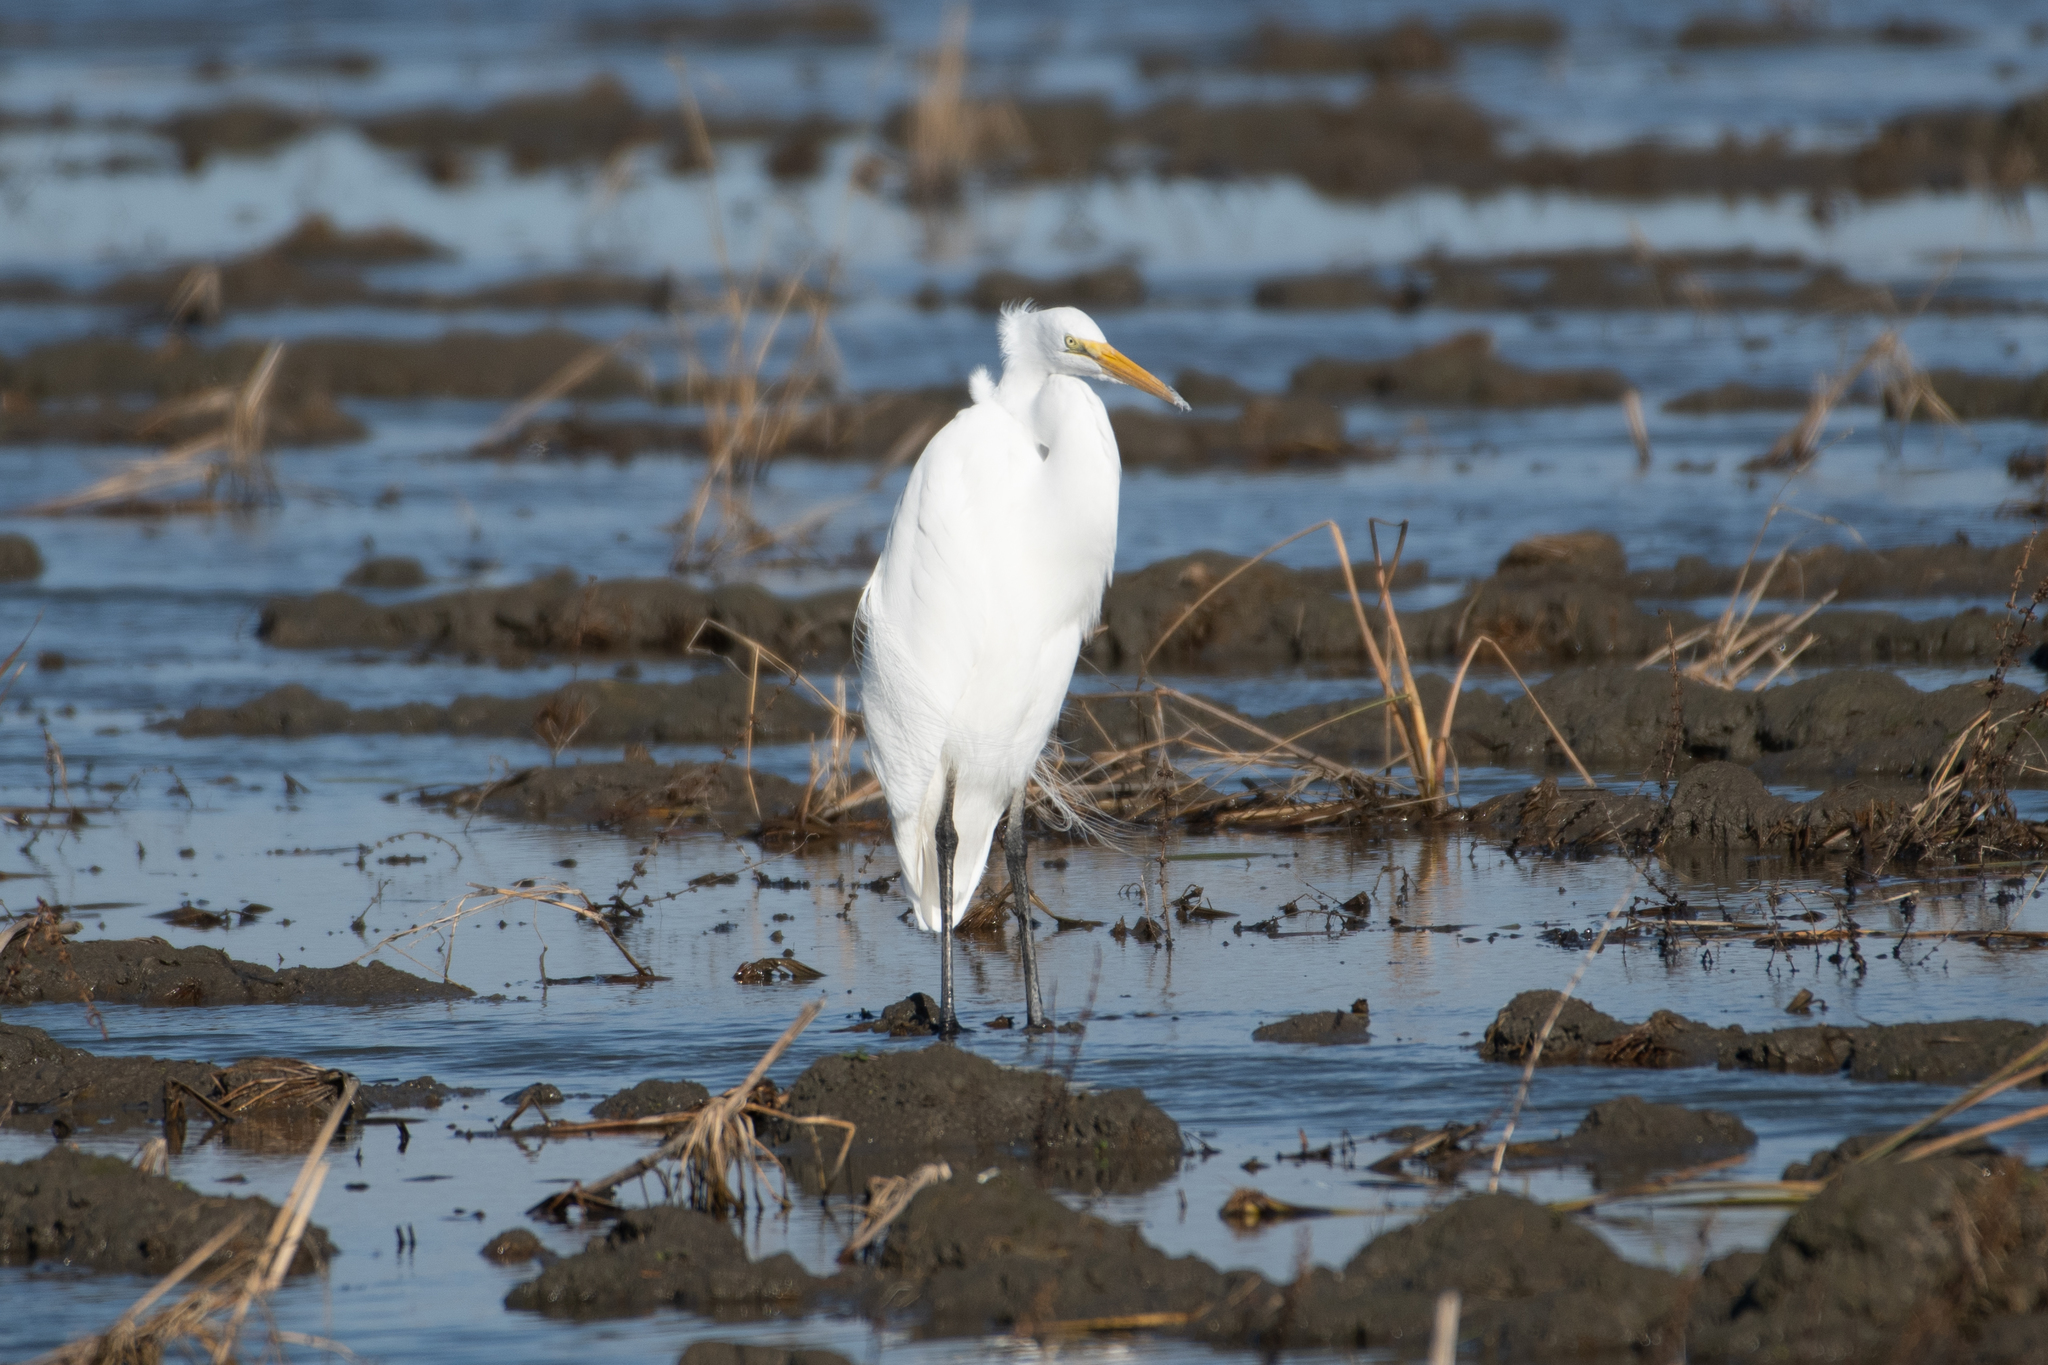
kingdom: Animalia
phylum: Chordata
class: Aves
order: Pelecaniformes
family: Ardeidae
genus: Ardea
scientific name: Ardea alba
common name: Great egret
